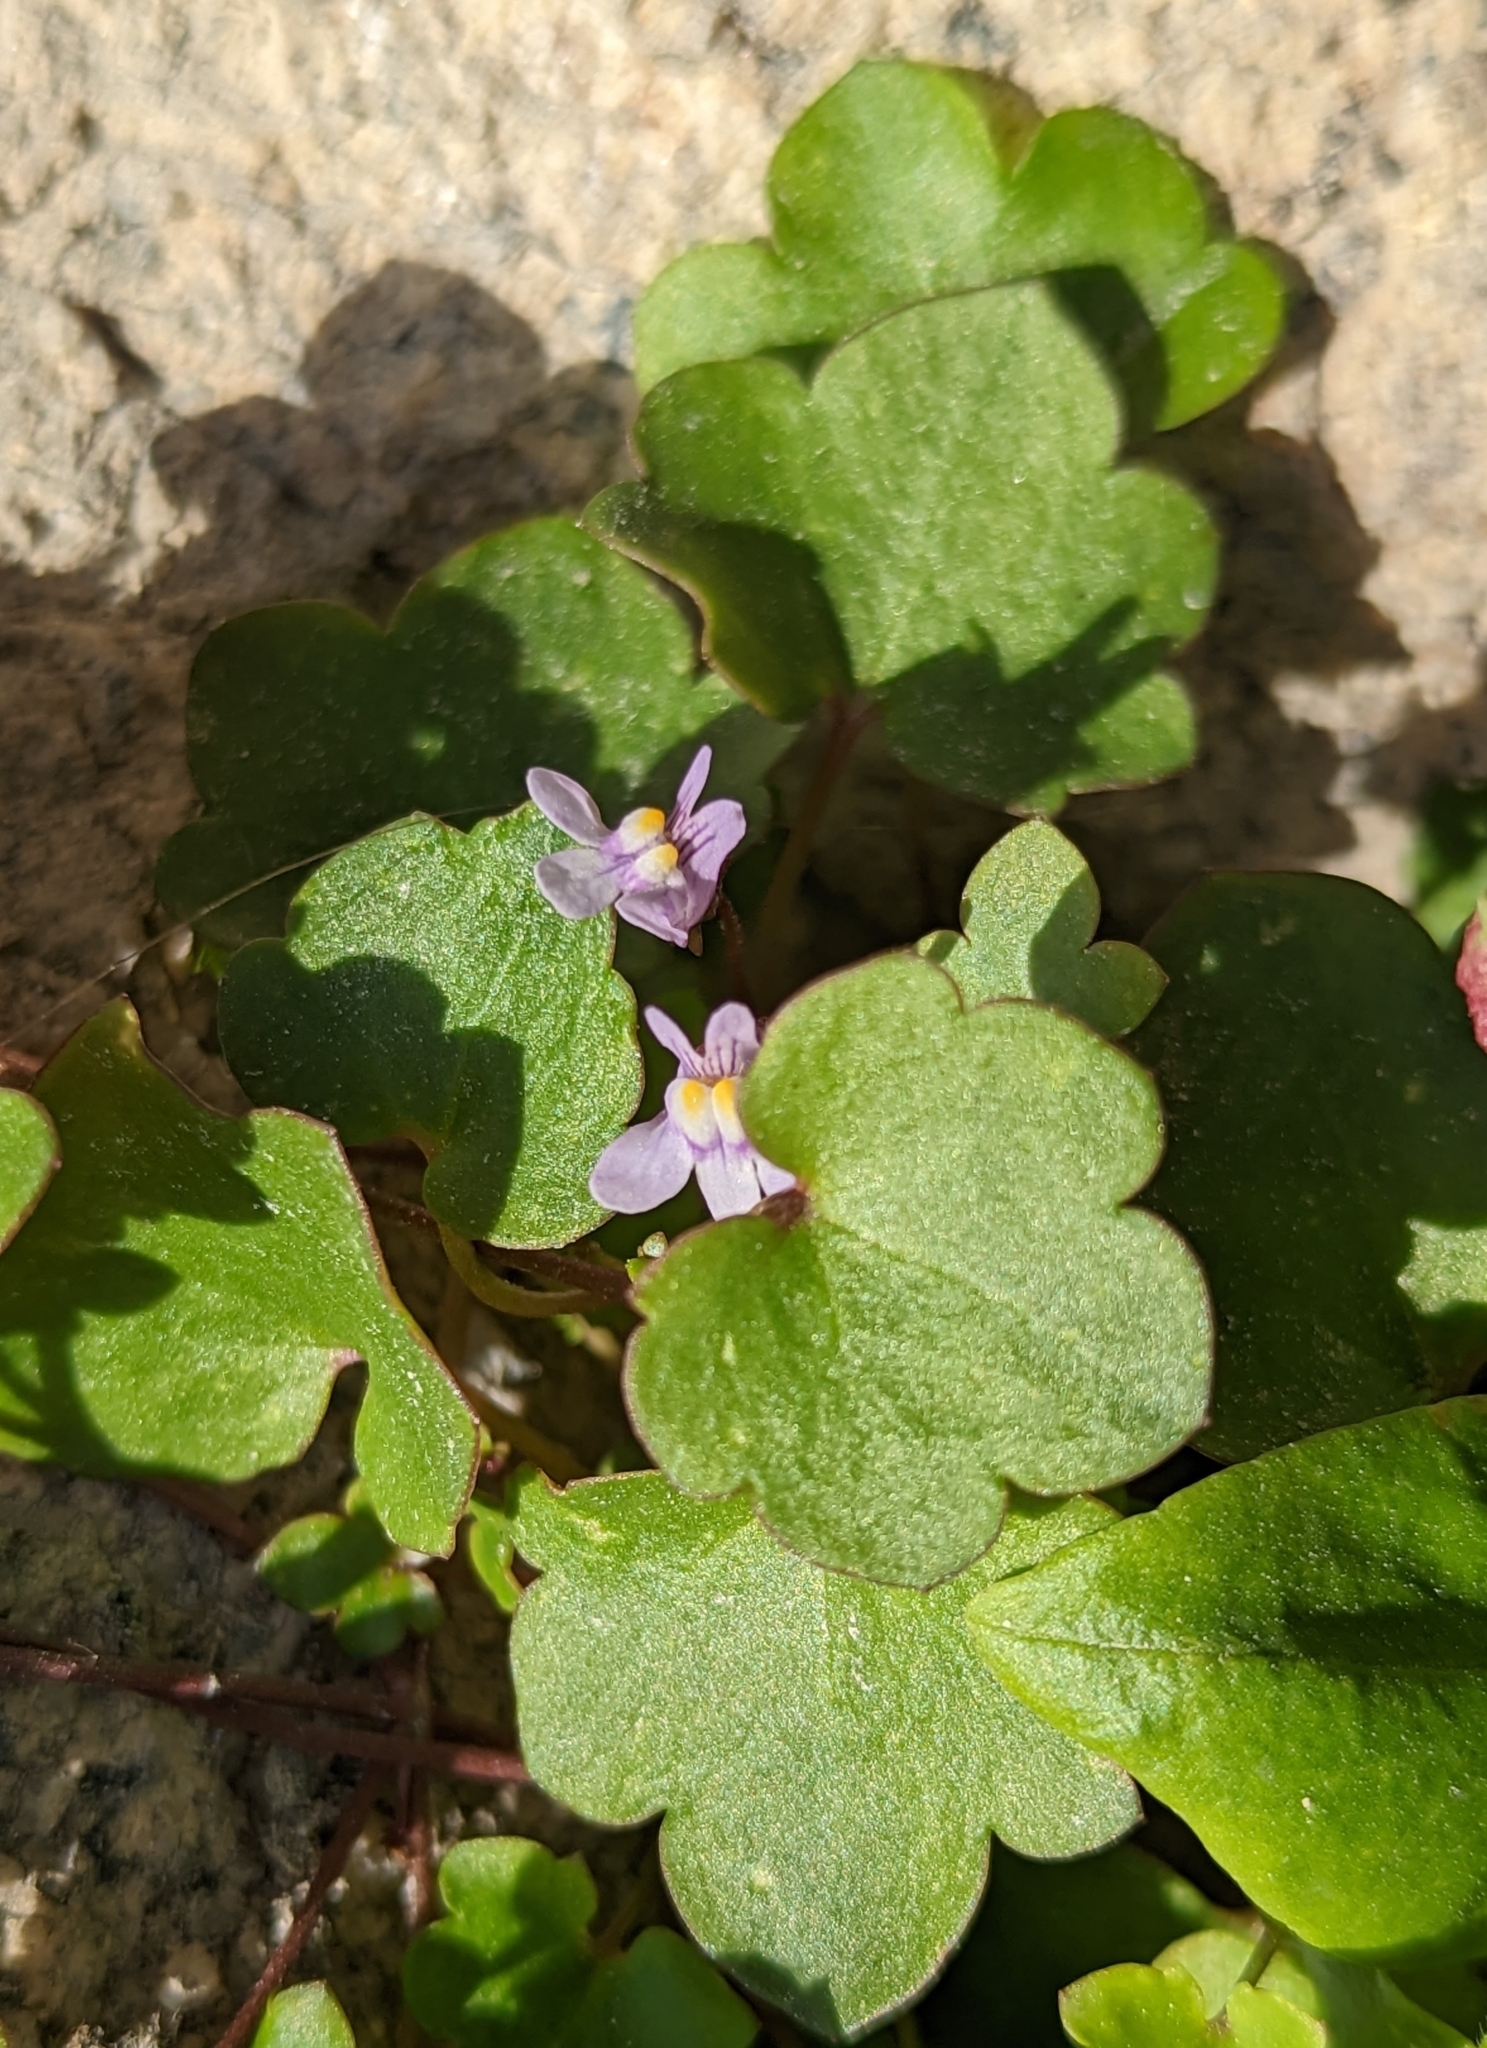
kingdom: Plantae
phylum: Tracheophyta
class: Magnoliopsida
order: Lamiales
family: Plantaginaceae
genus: Cymbalaria
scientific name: Cymbalaria muralis
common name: Ivy-leaved toadflax
